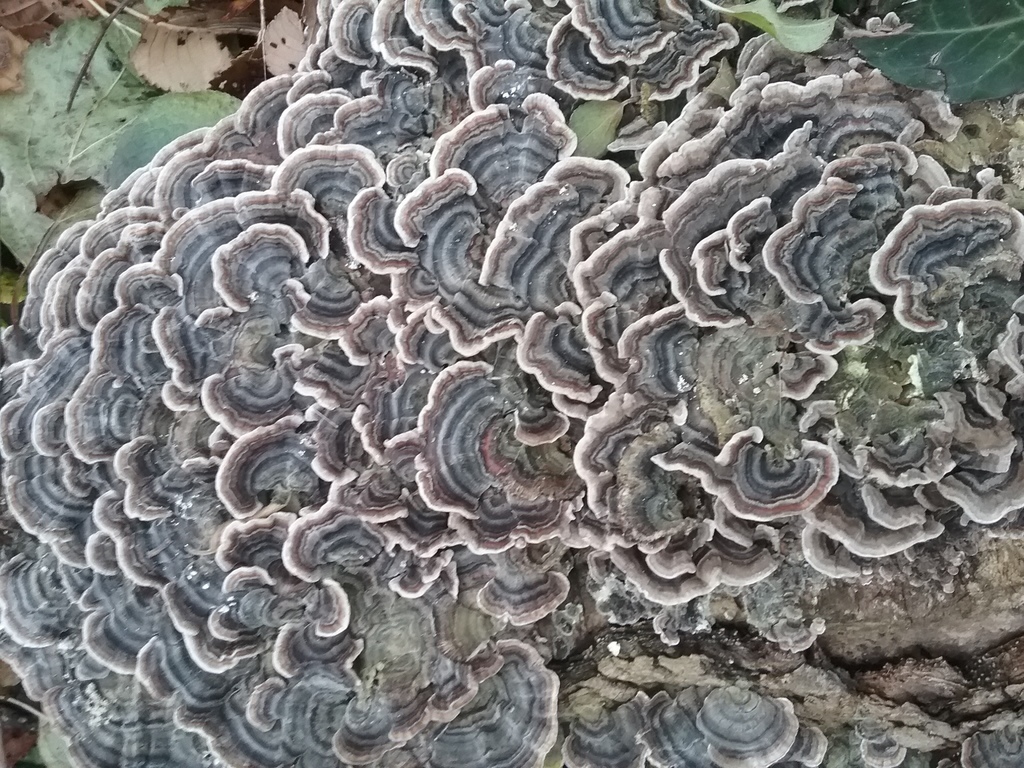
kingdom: Fungi
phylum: Basidiomycota
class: Agaricomycetes
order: Polyporales
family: Polyporaceae
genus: Trametes
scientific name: Trametes versicolor
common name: Turkeytail
